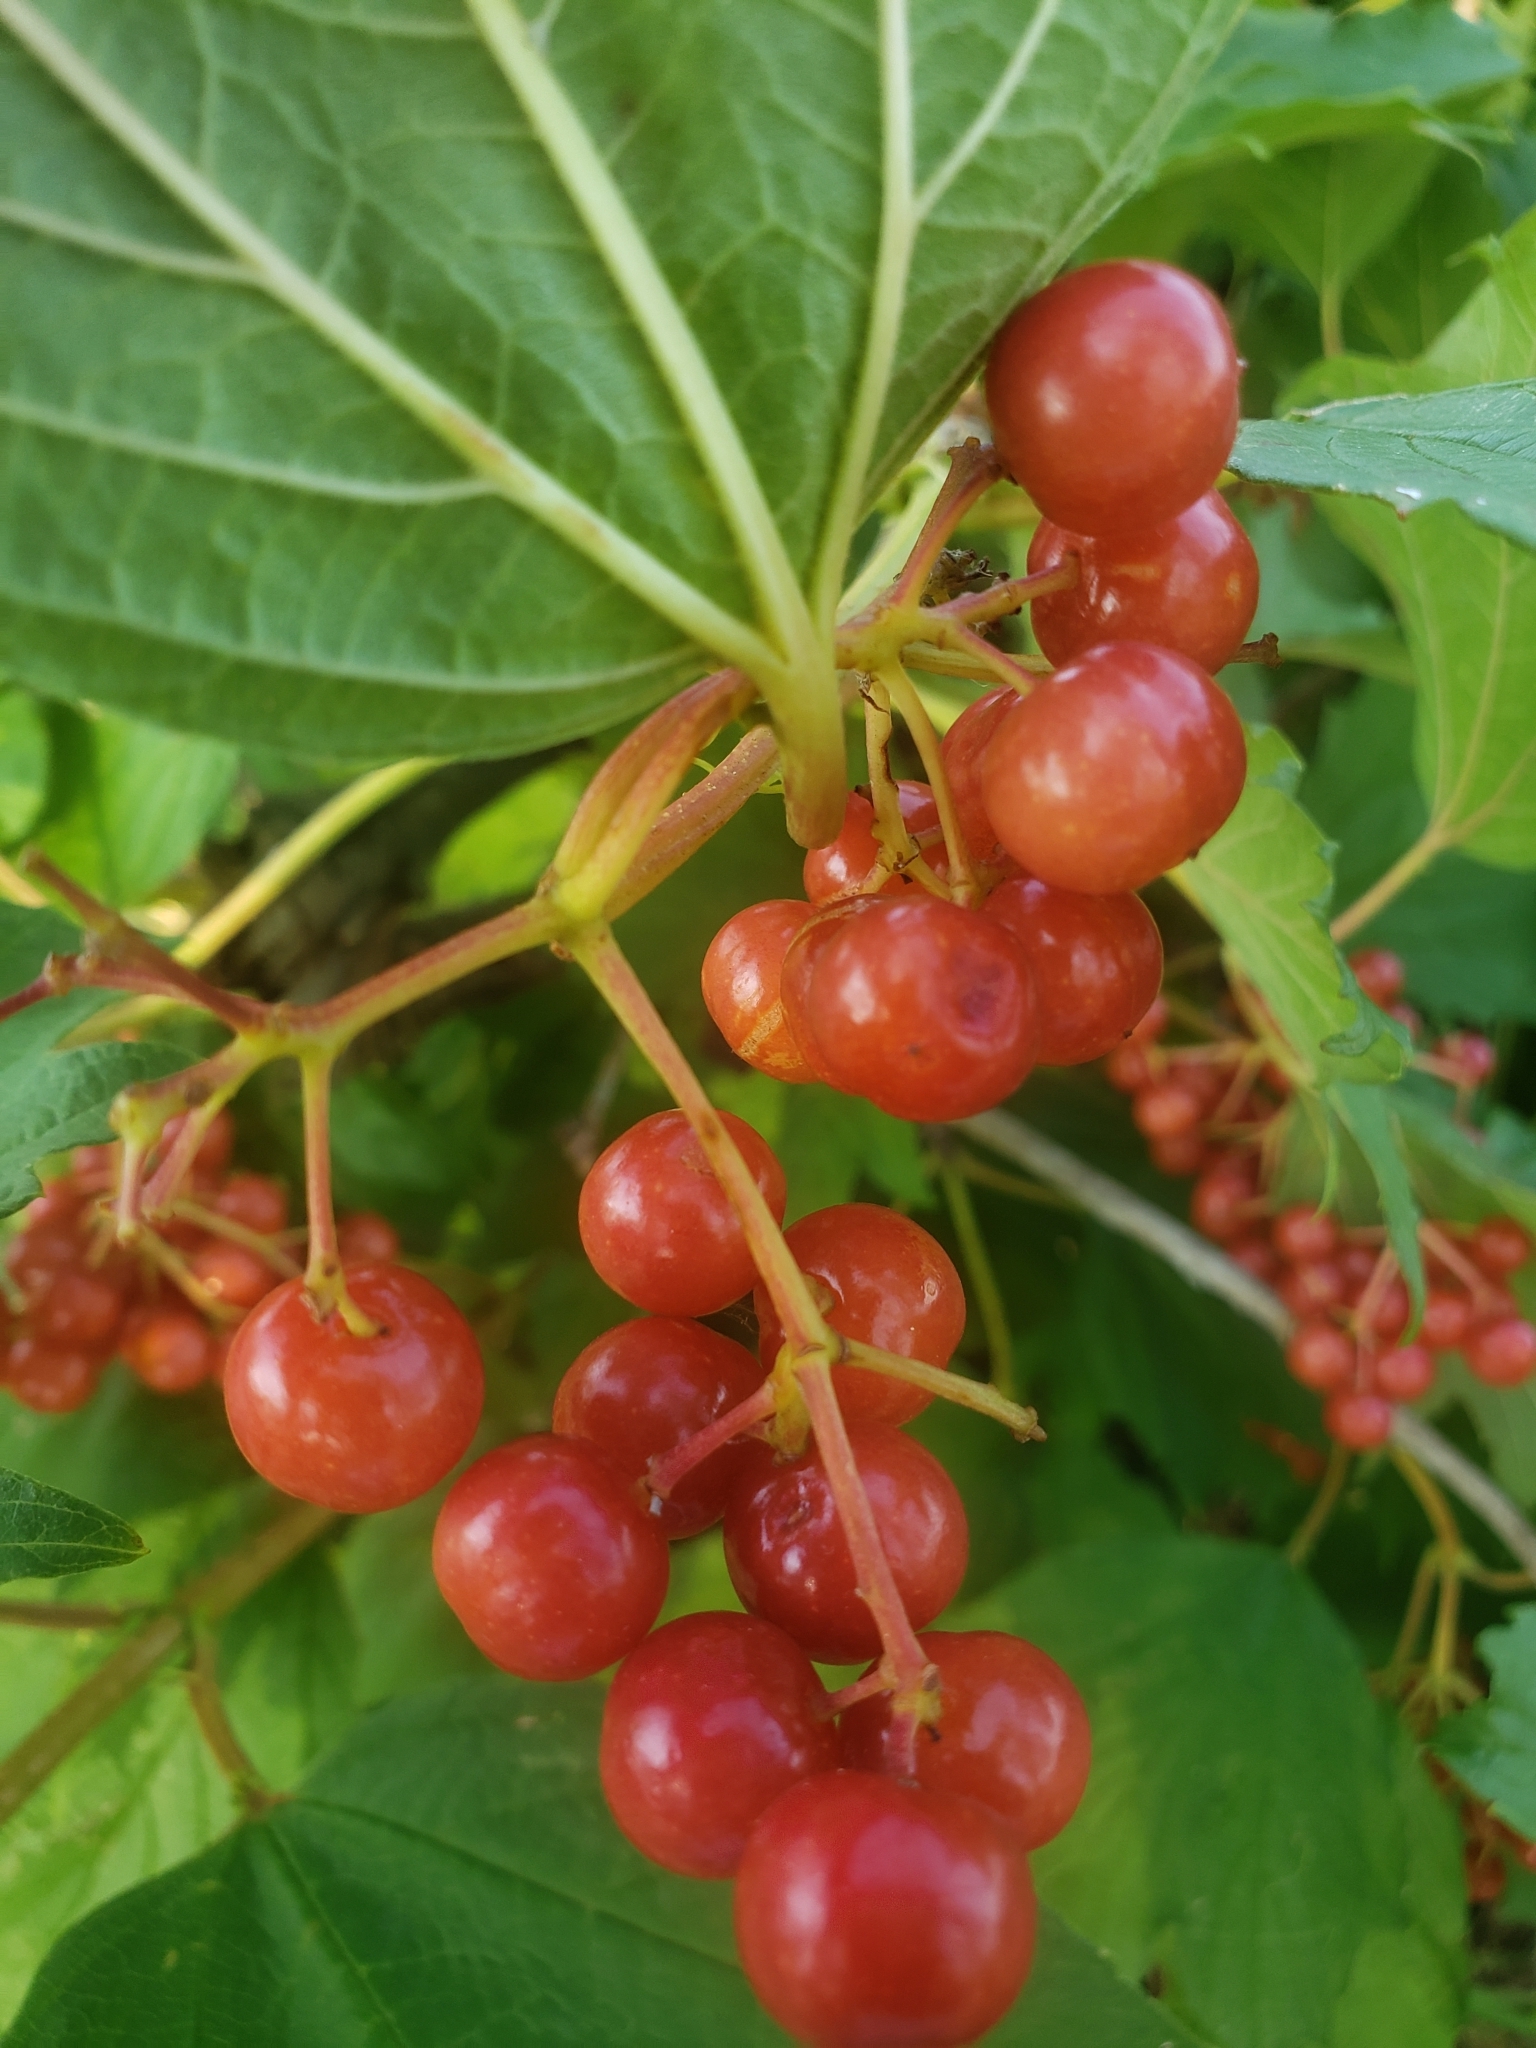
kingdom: Plantae
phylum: Tracheophyta
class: Magnoliopsida
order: Dipsacales
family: Viburnaceae
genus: Viburnum
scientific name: Viburnum opulus
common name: Guelder-rose
